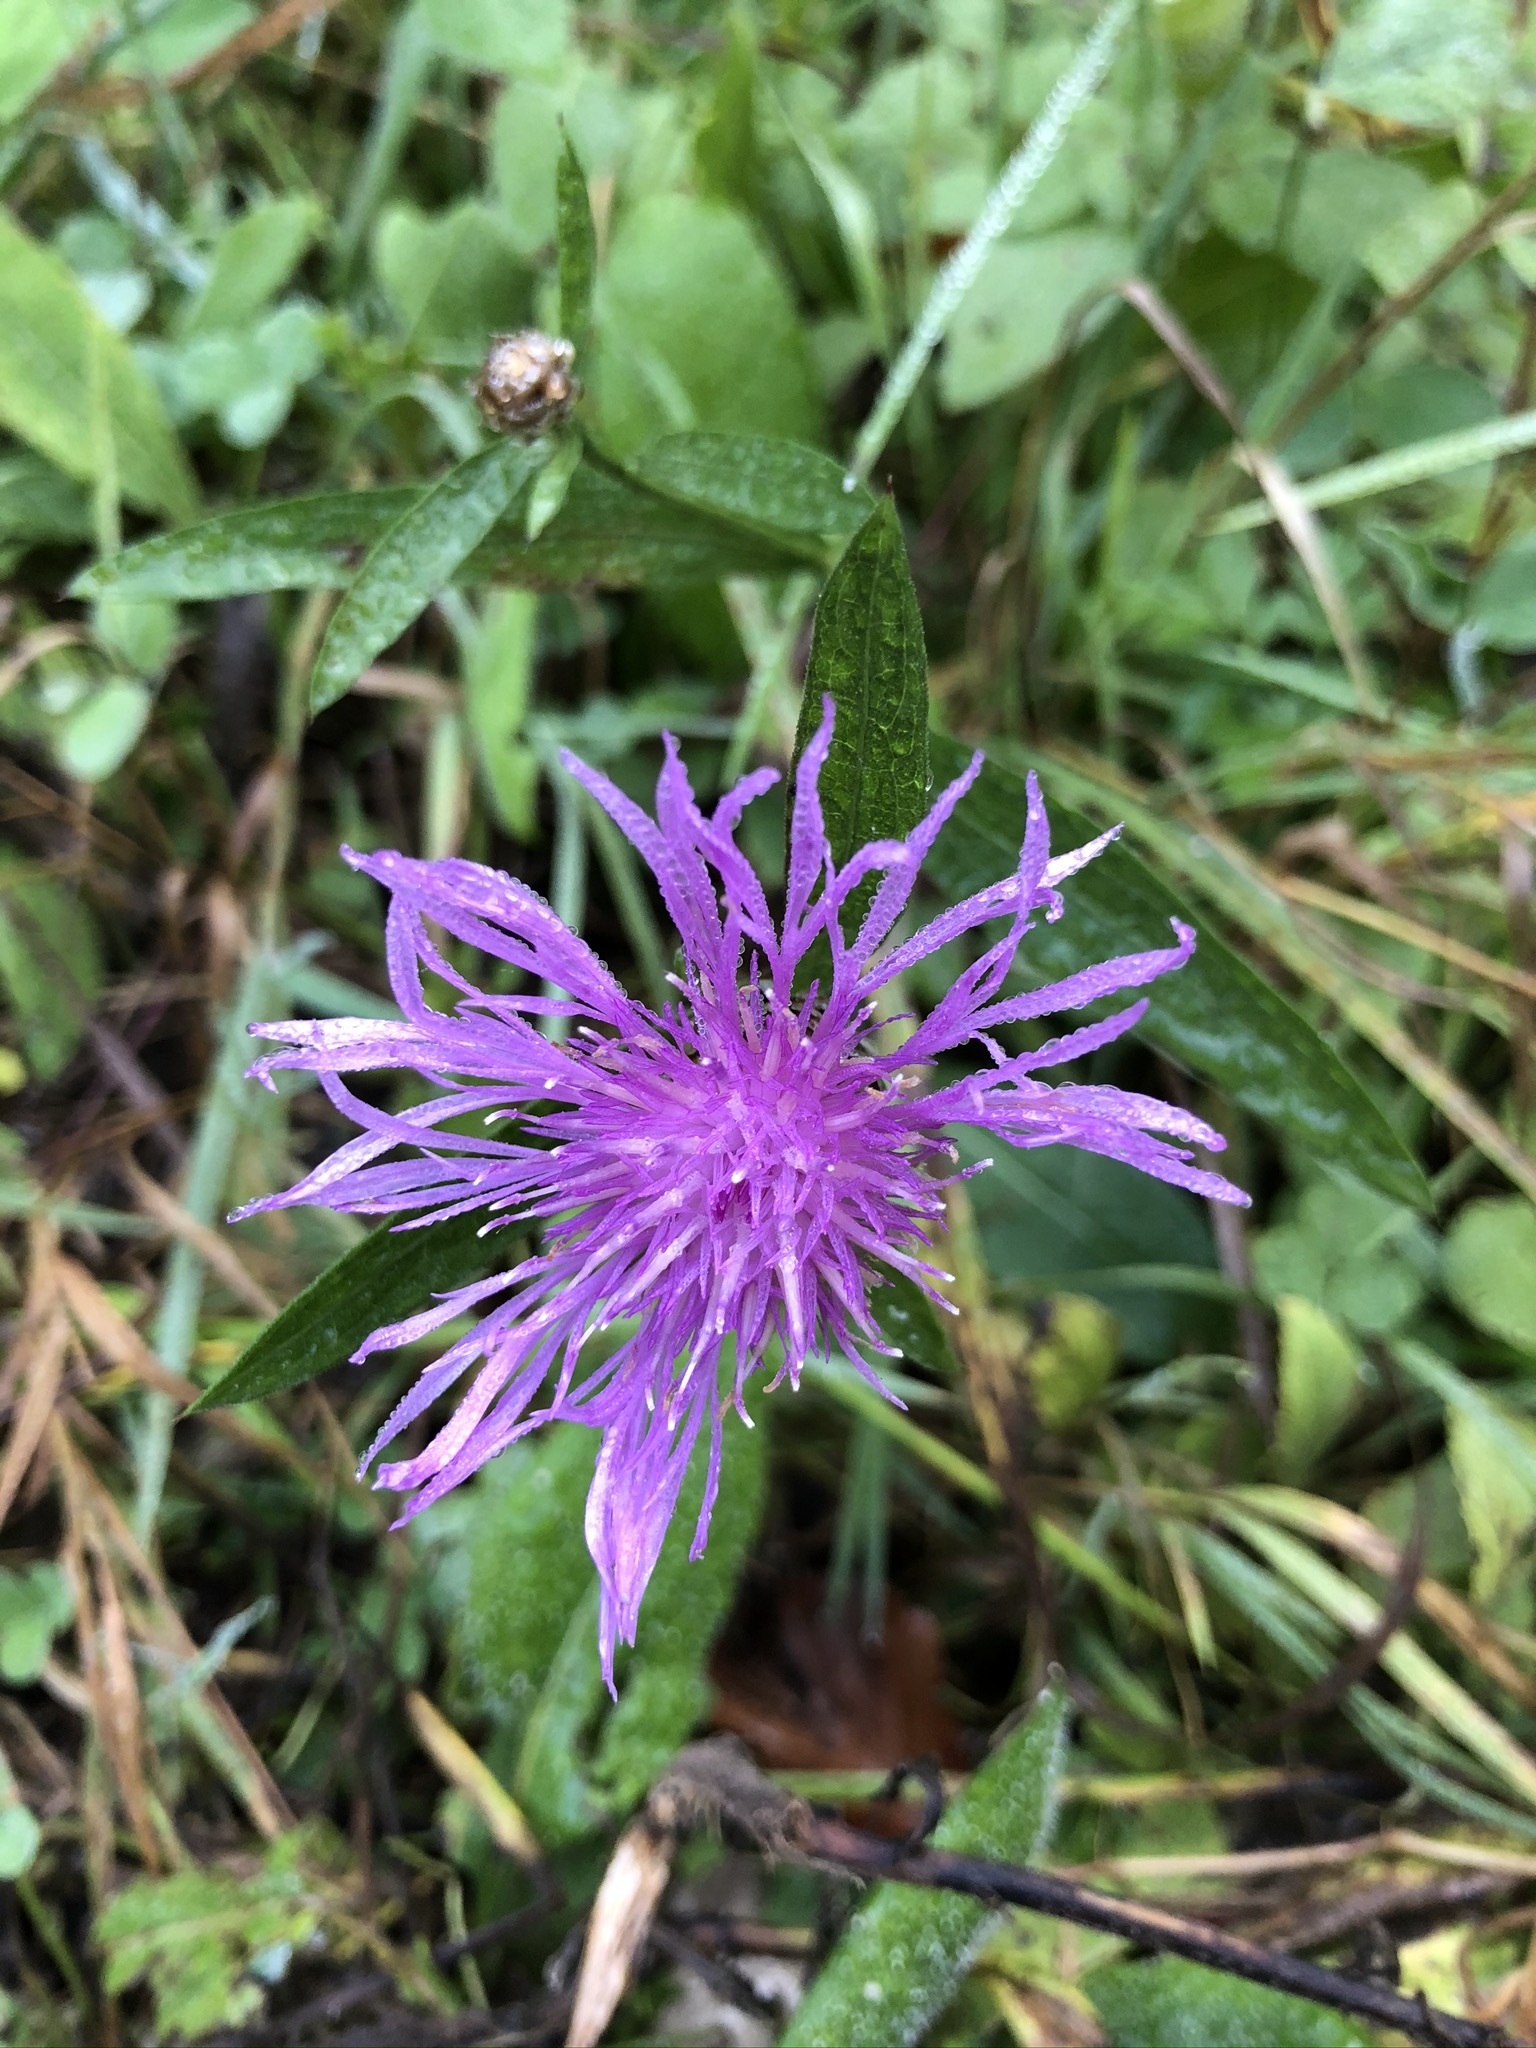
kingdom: Plantae
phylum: Tracheophyta
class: Magnoliopsida
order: Asterales
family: Asteraceae
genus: Centaurea
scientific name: Centaurea jacea
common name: Brown knapweed
